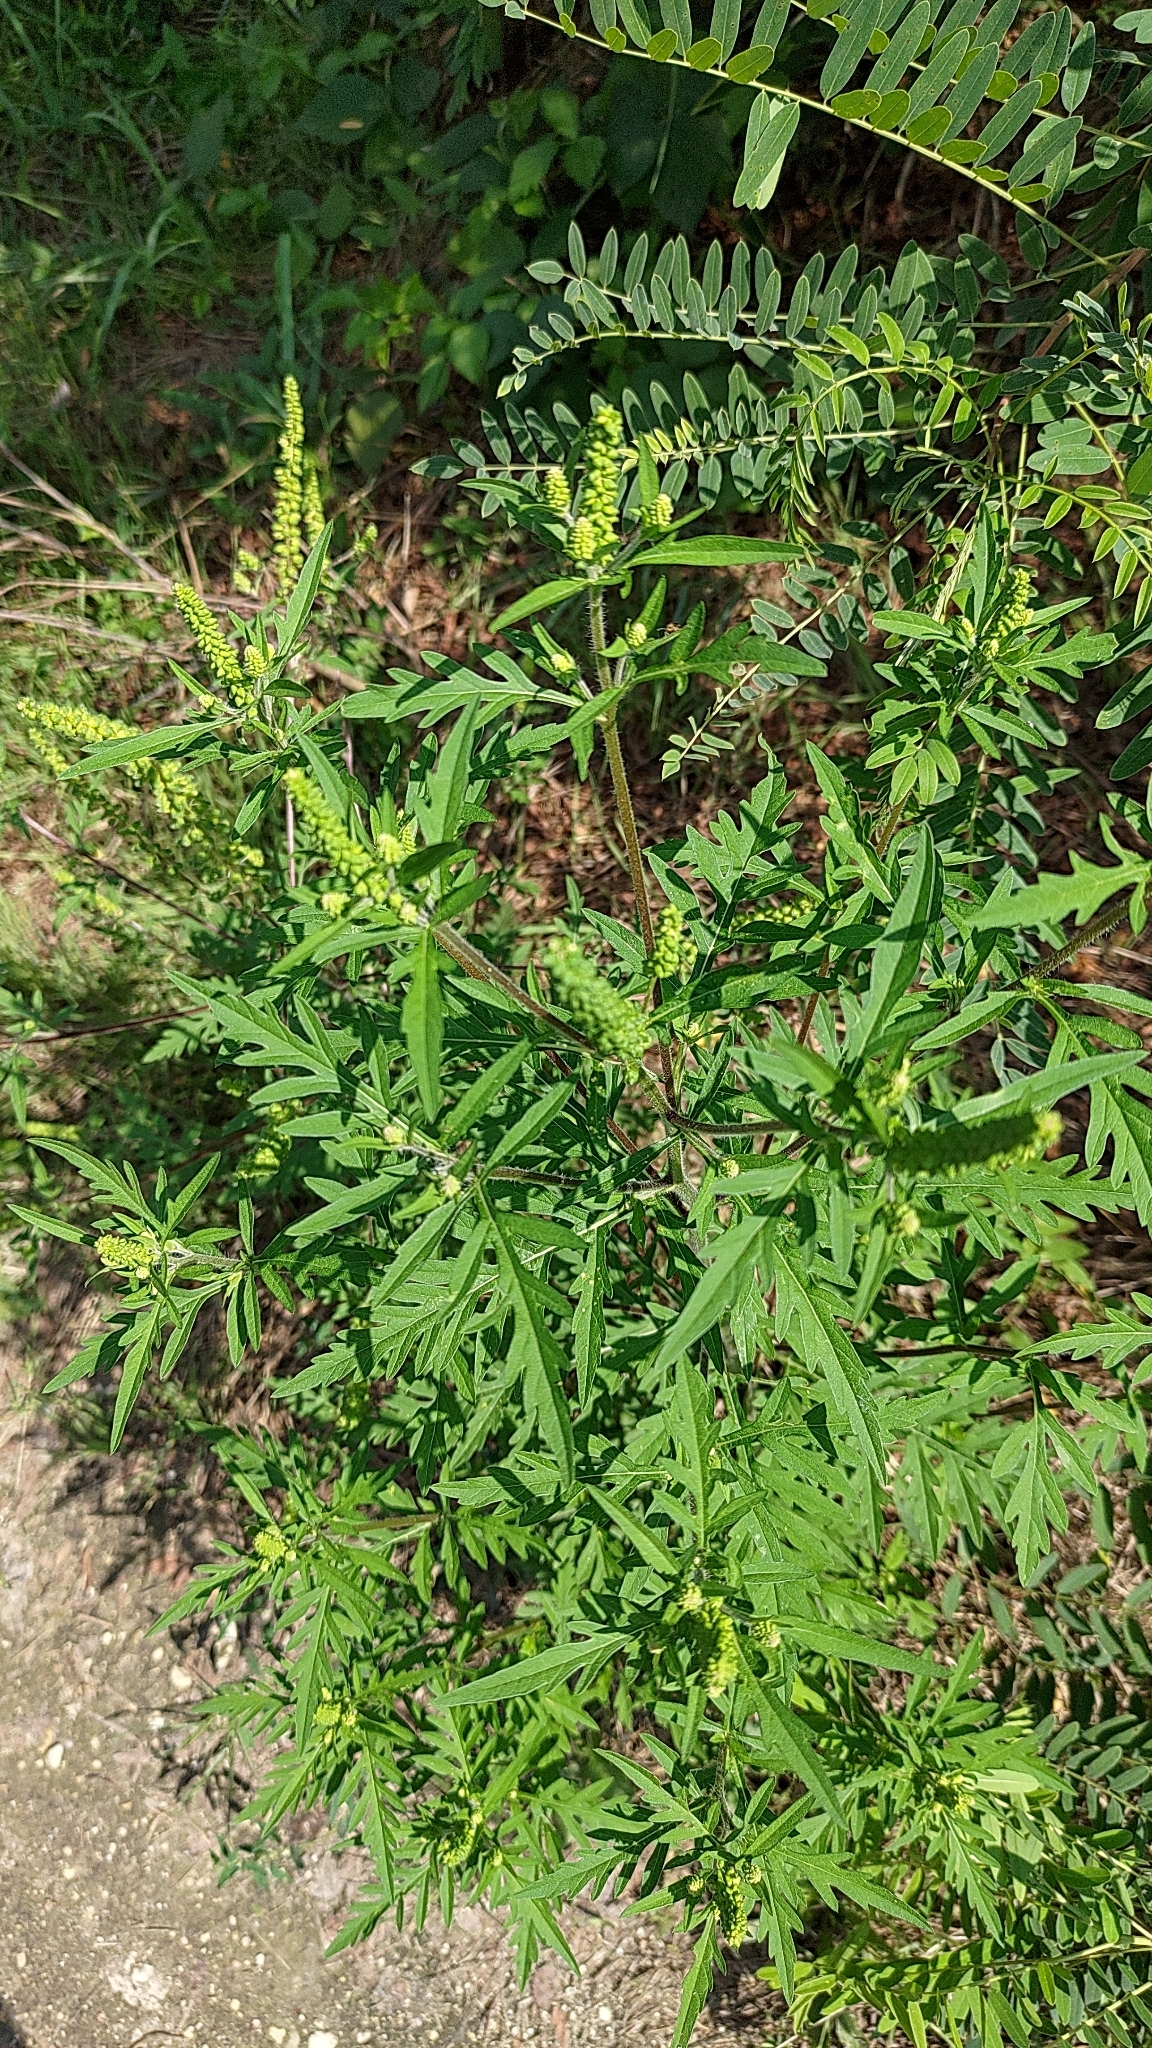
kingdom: Plantae
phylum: Tracheophyta
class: Magnoliopsida
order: Asterales
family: Asteraceae
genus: Ambrosia
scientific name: Ambrosia artemisiifolia
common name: Annual ragweed
